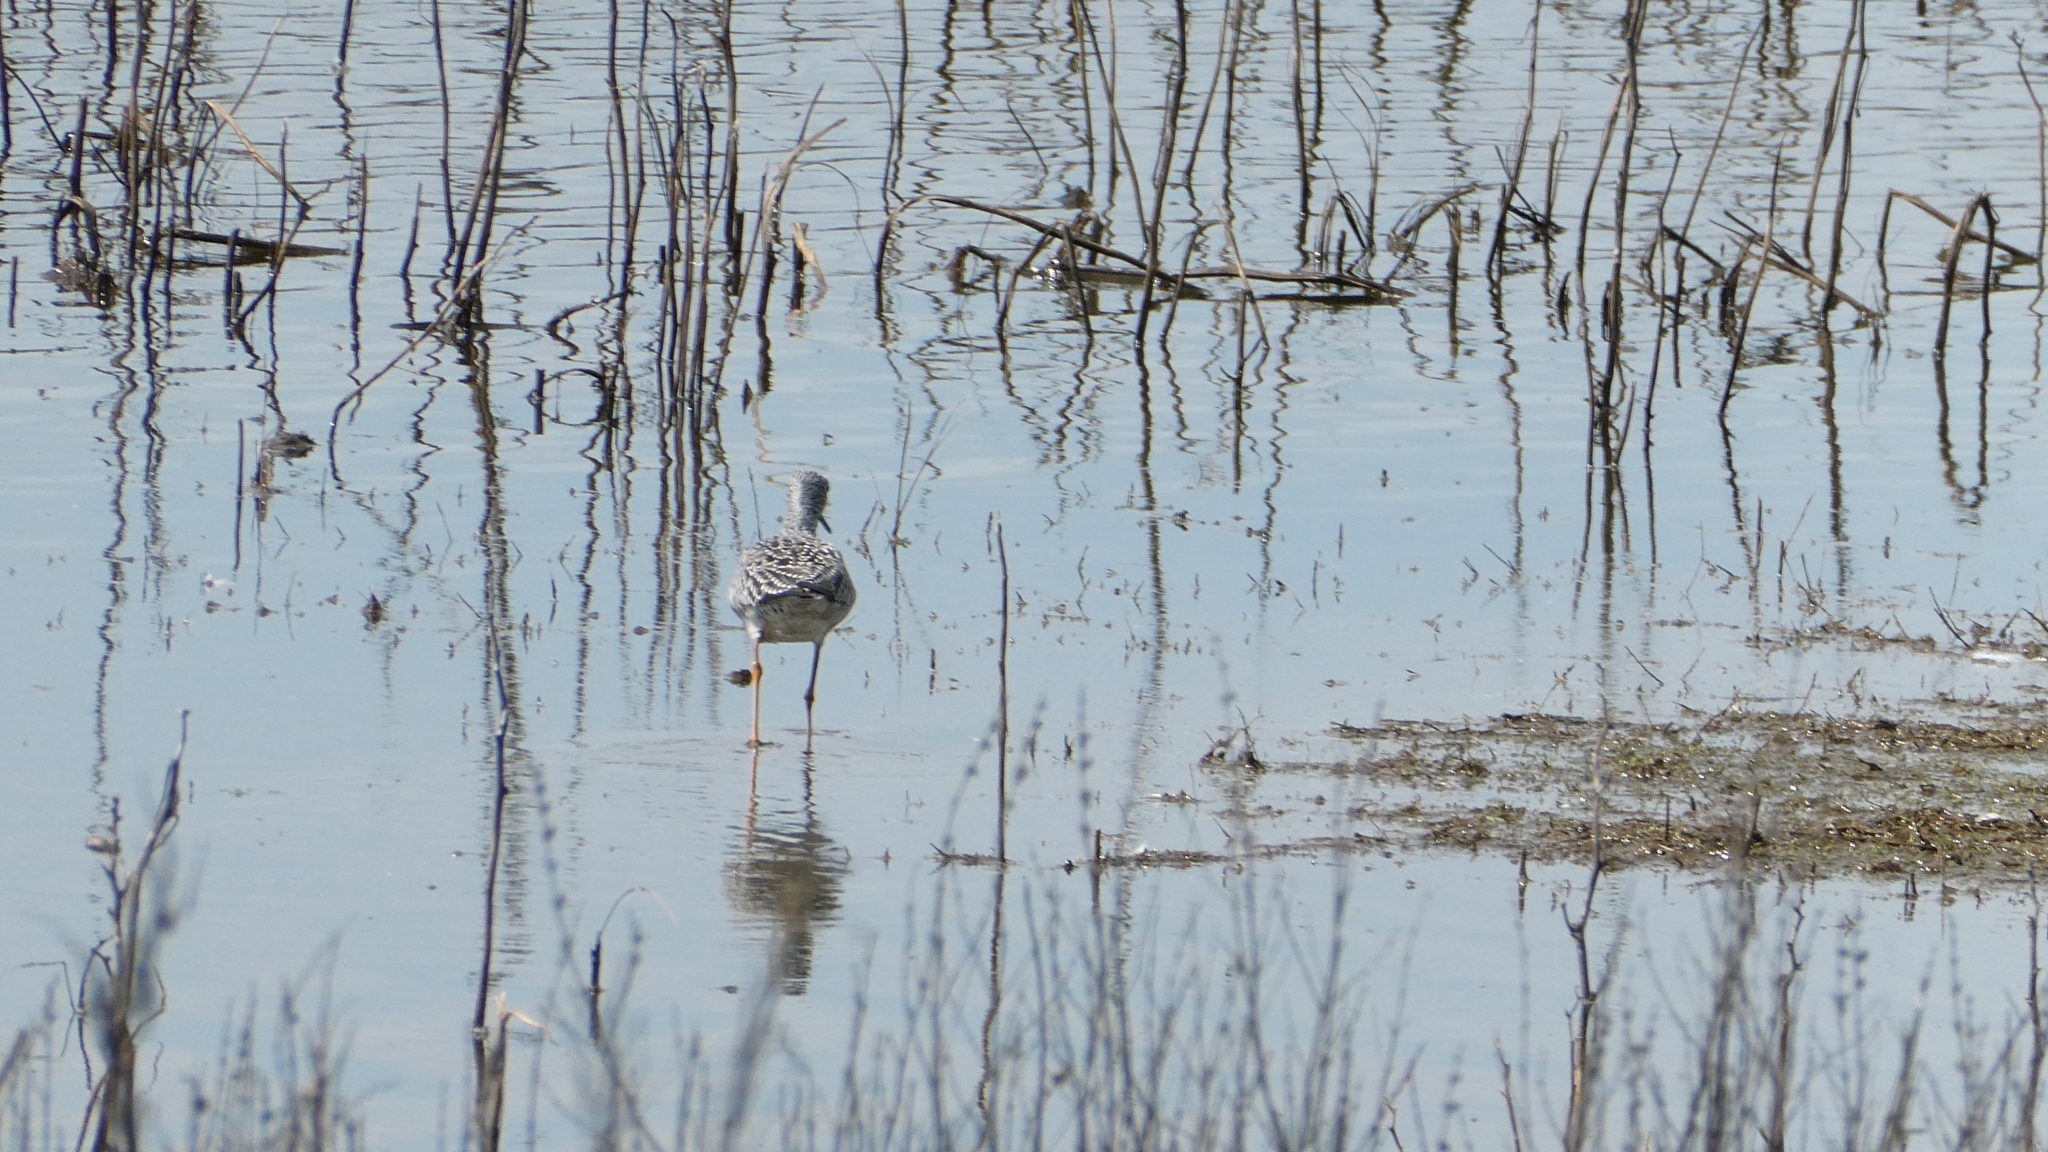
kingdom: Animalia
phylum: Chordata
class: Aves
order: Charadriiformes
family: Scolopacidae
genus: Tringa
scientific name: Tringa melanoleuca
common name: Greater yellowlegs
